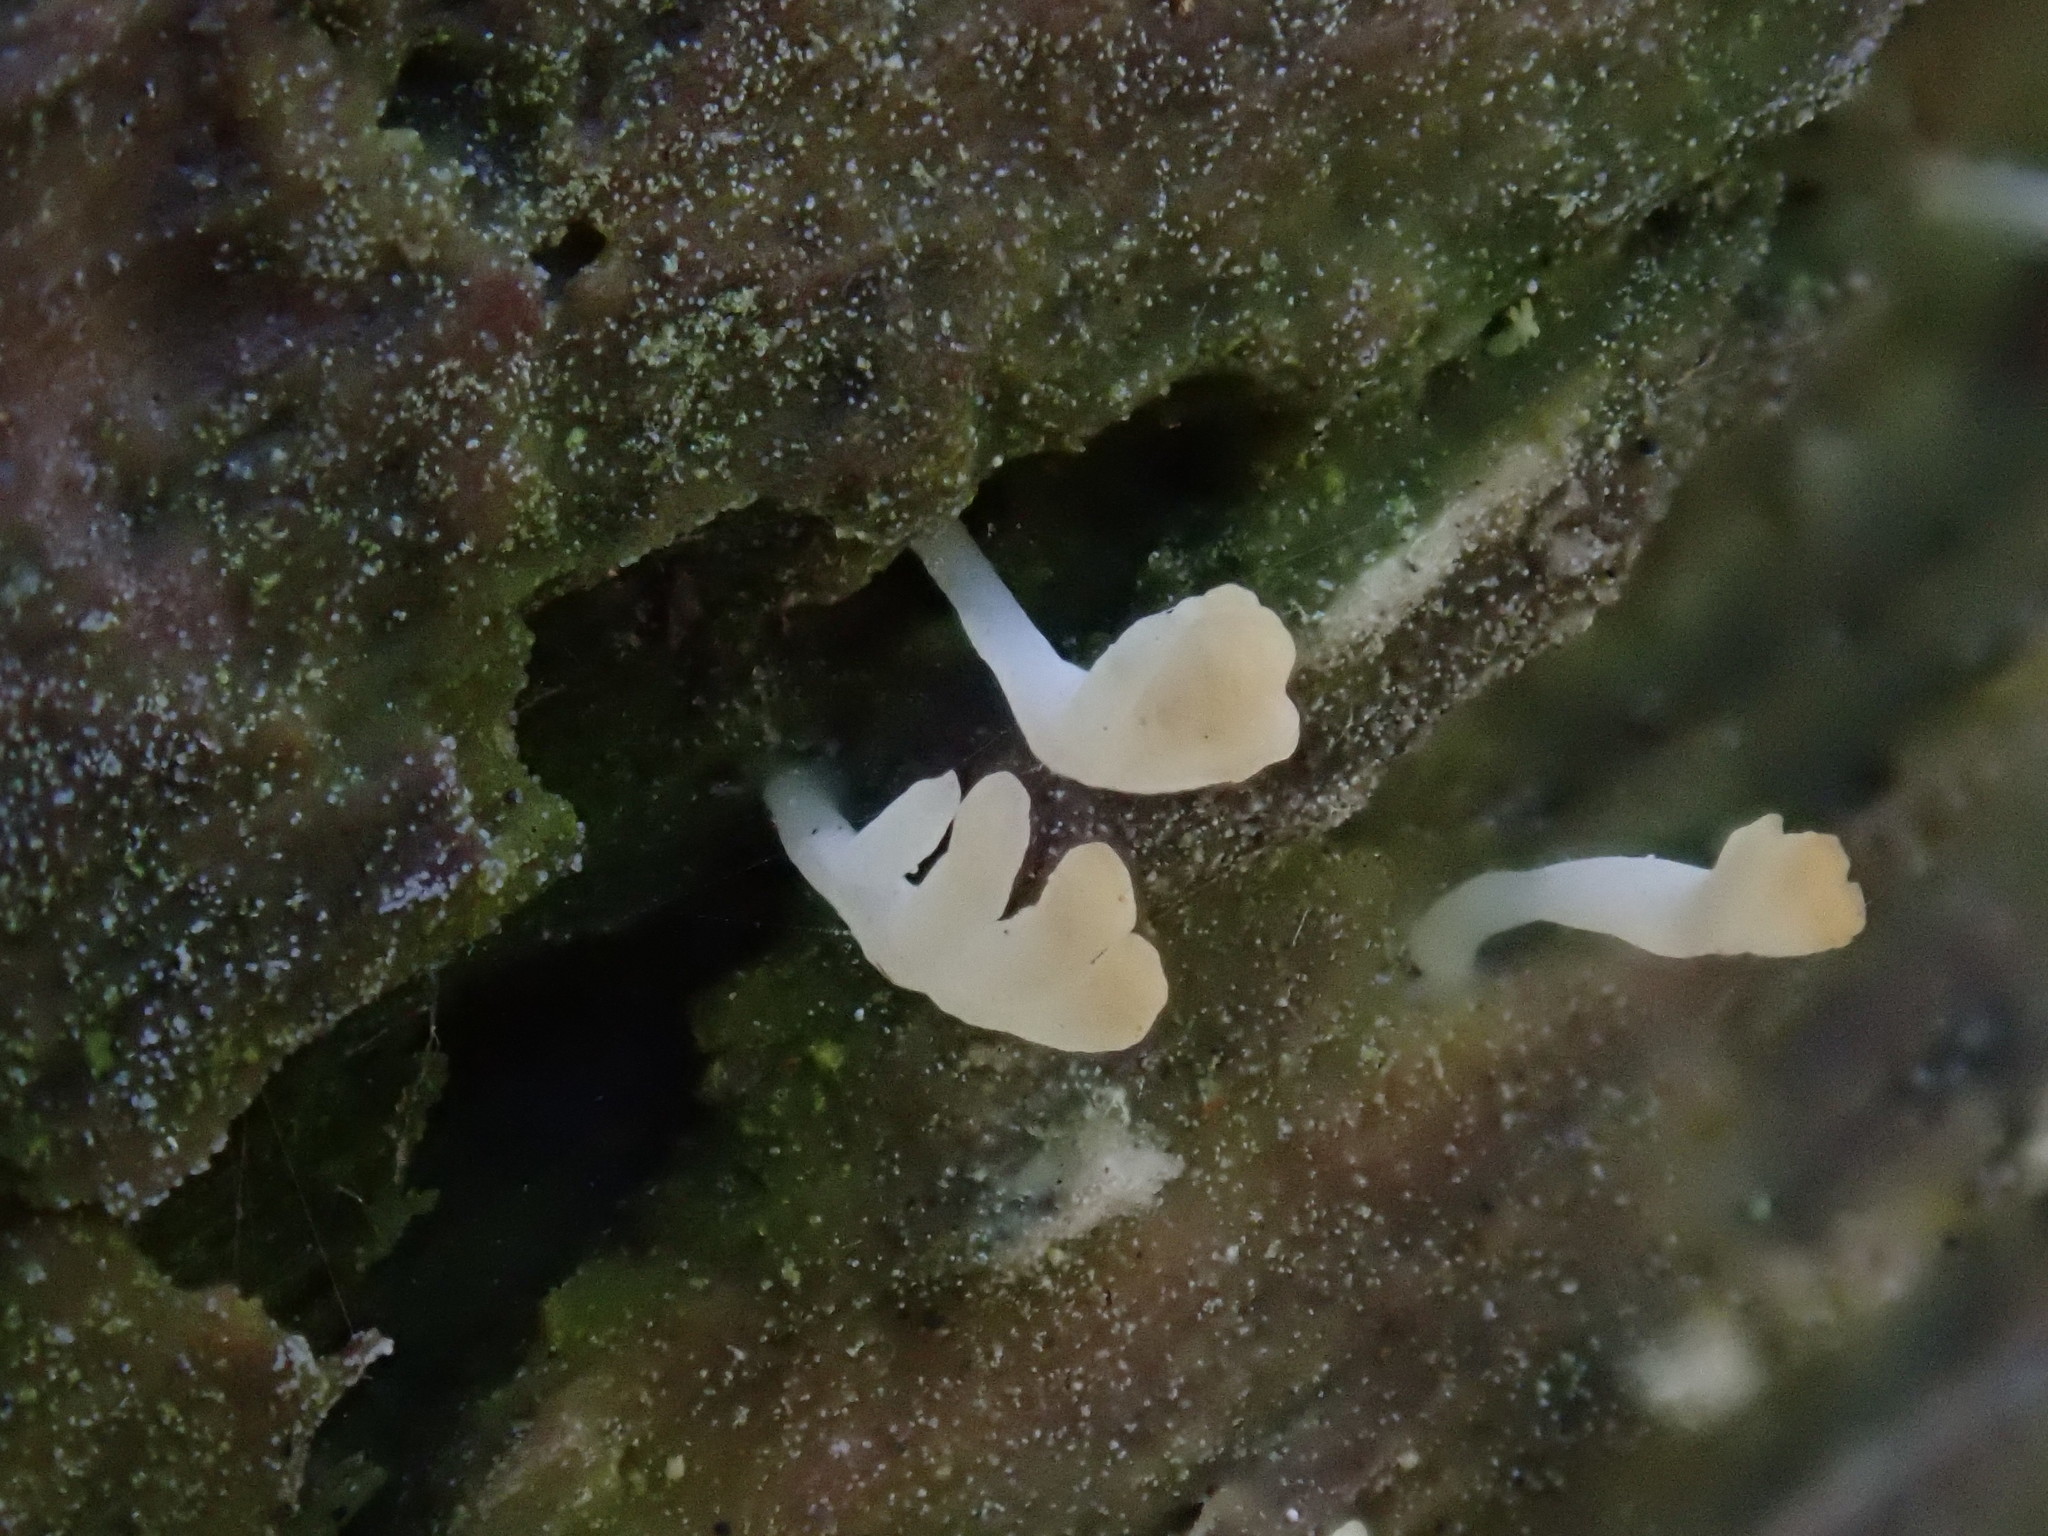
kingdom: Fungi
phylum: Basidiomycota
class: Agaricomycetes
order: Cantharellales
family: Hydnaceae
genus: Multiclavula
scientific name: Multiclavula mucida
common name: White green-algae coral
